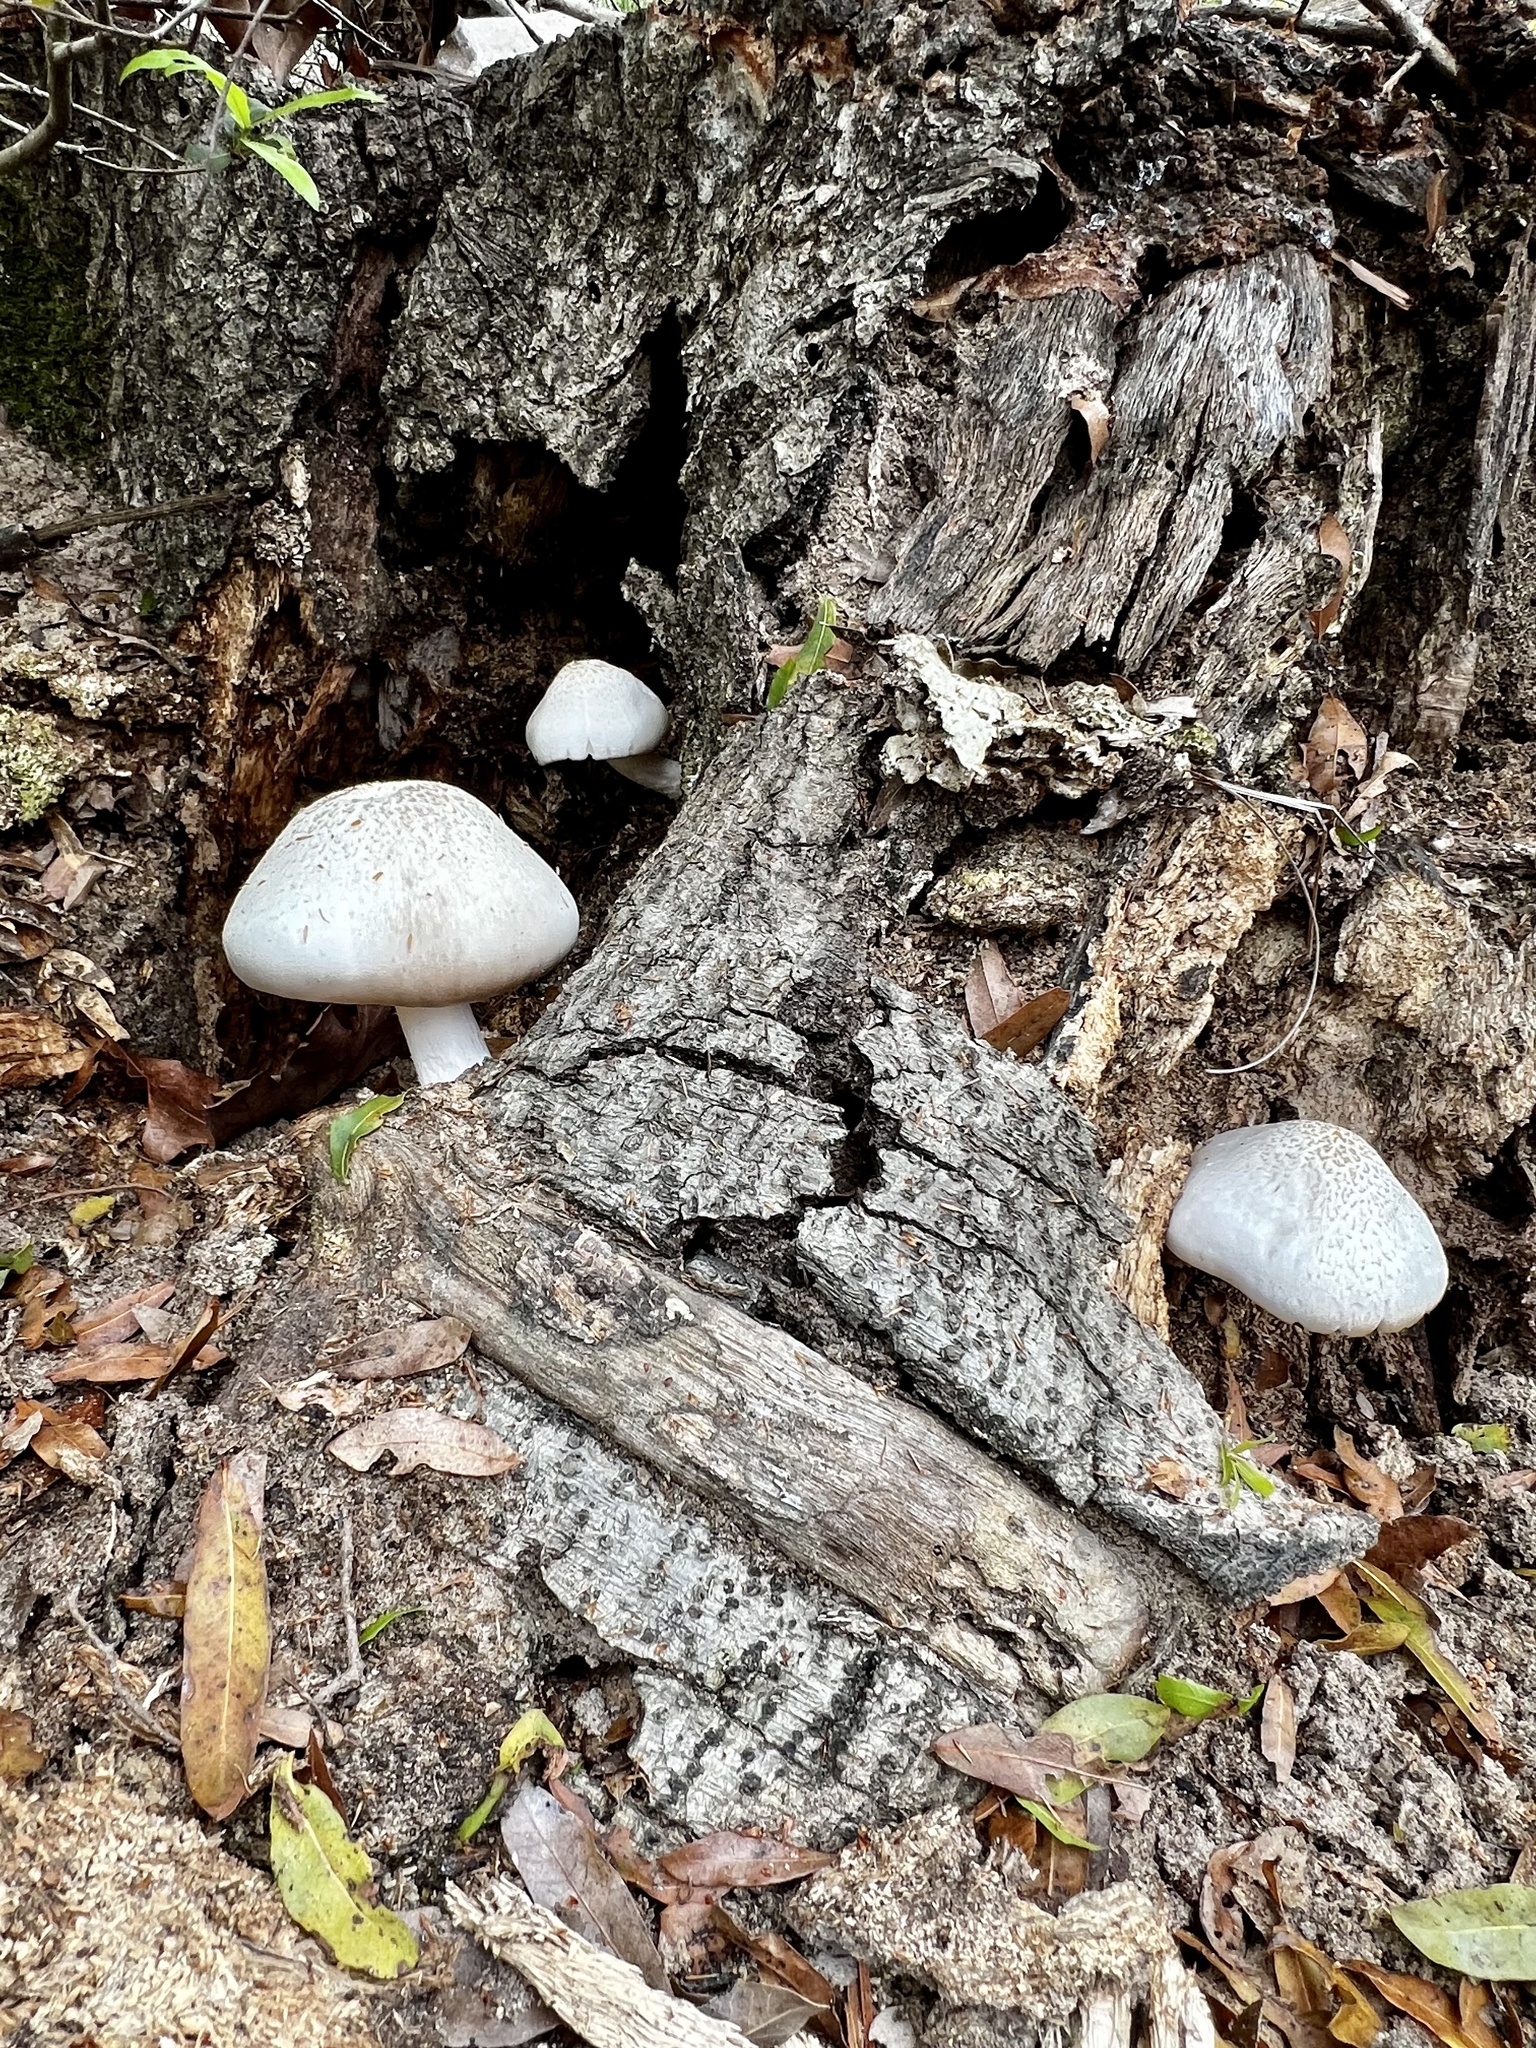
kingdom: Fungi
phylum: Basidiomycota
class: Agaricomycetes
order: Agaricales
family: Pluteaceae
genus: Pluteus
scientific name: Pluteus petasatus
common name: Scaly shield
